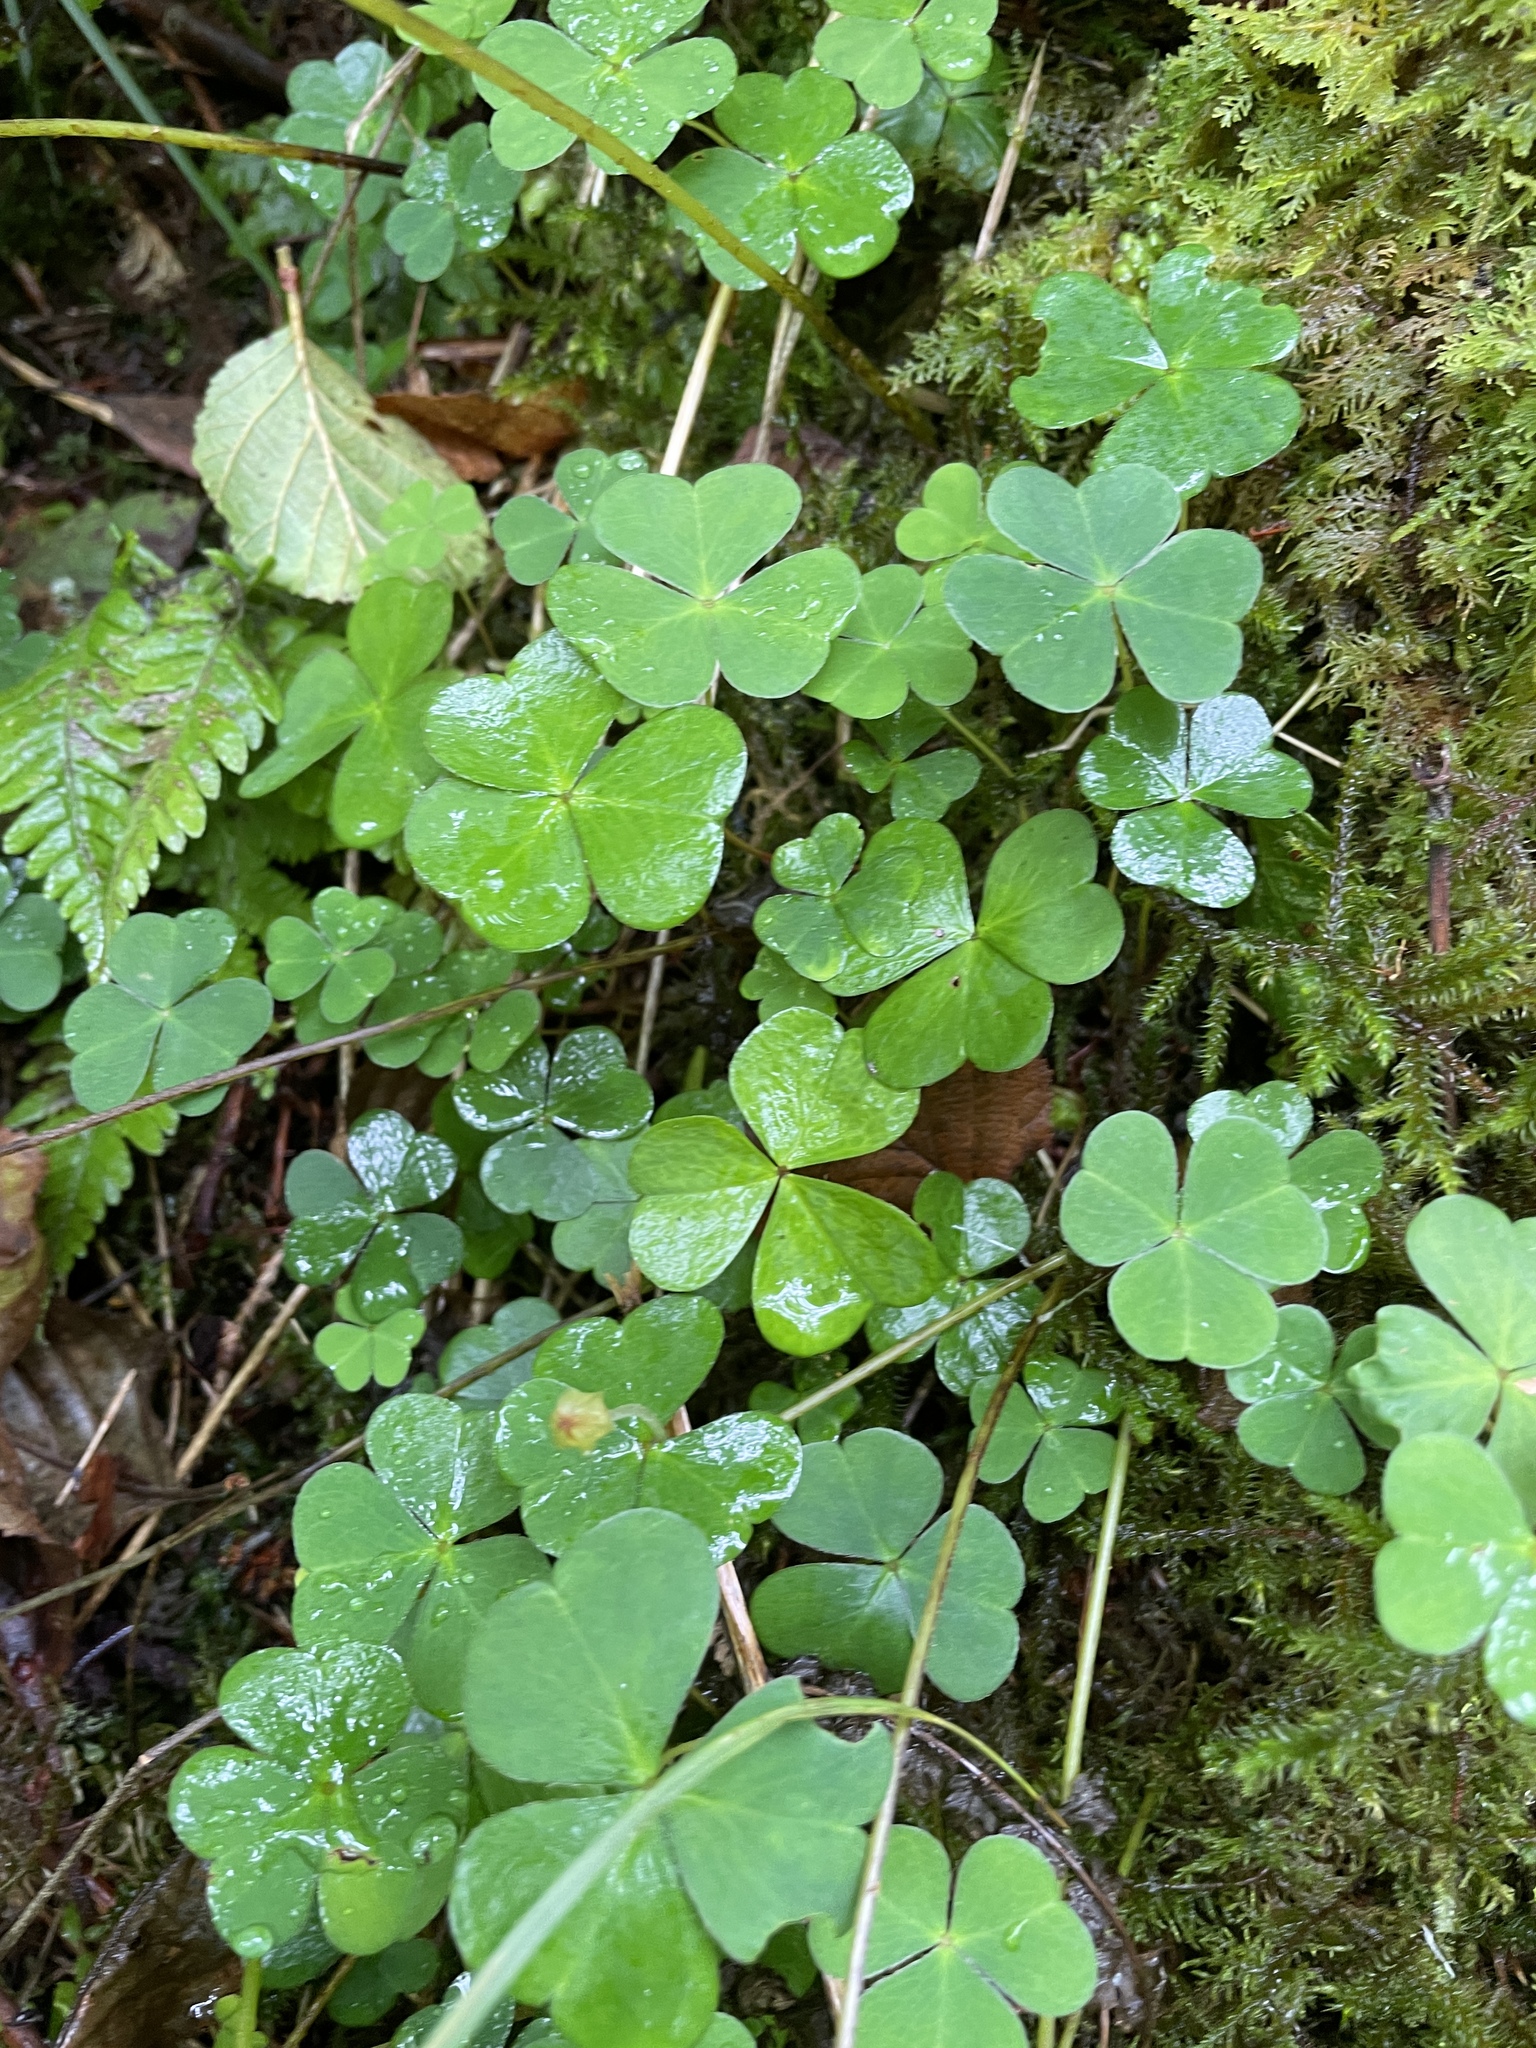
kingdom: Plantae
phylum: Tracheophyta
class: Magnoliopsida
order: Oxalidales
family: Oxalidaceae
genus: Oxalis
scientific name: Oxalis acetosella
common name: Wood-sorrel
